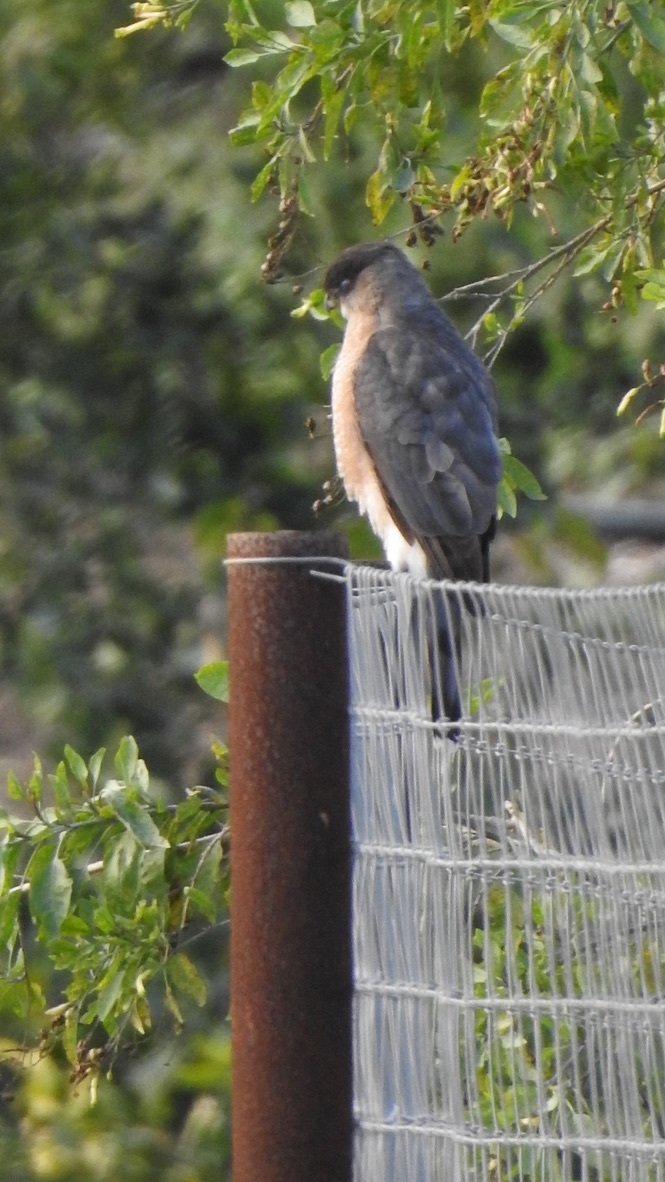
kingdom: Animalia
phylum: Chordata
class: Aves
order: Accipitriformes
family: Accipitridae
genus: Accipiter
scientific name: Accipiter cooperii
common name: Cooper's hawk
